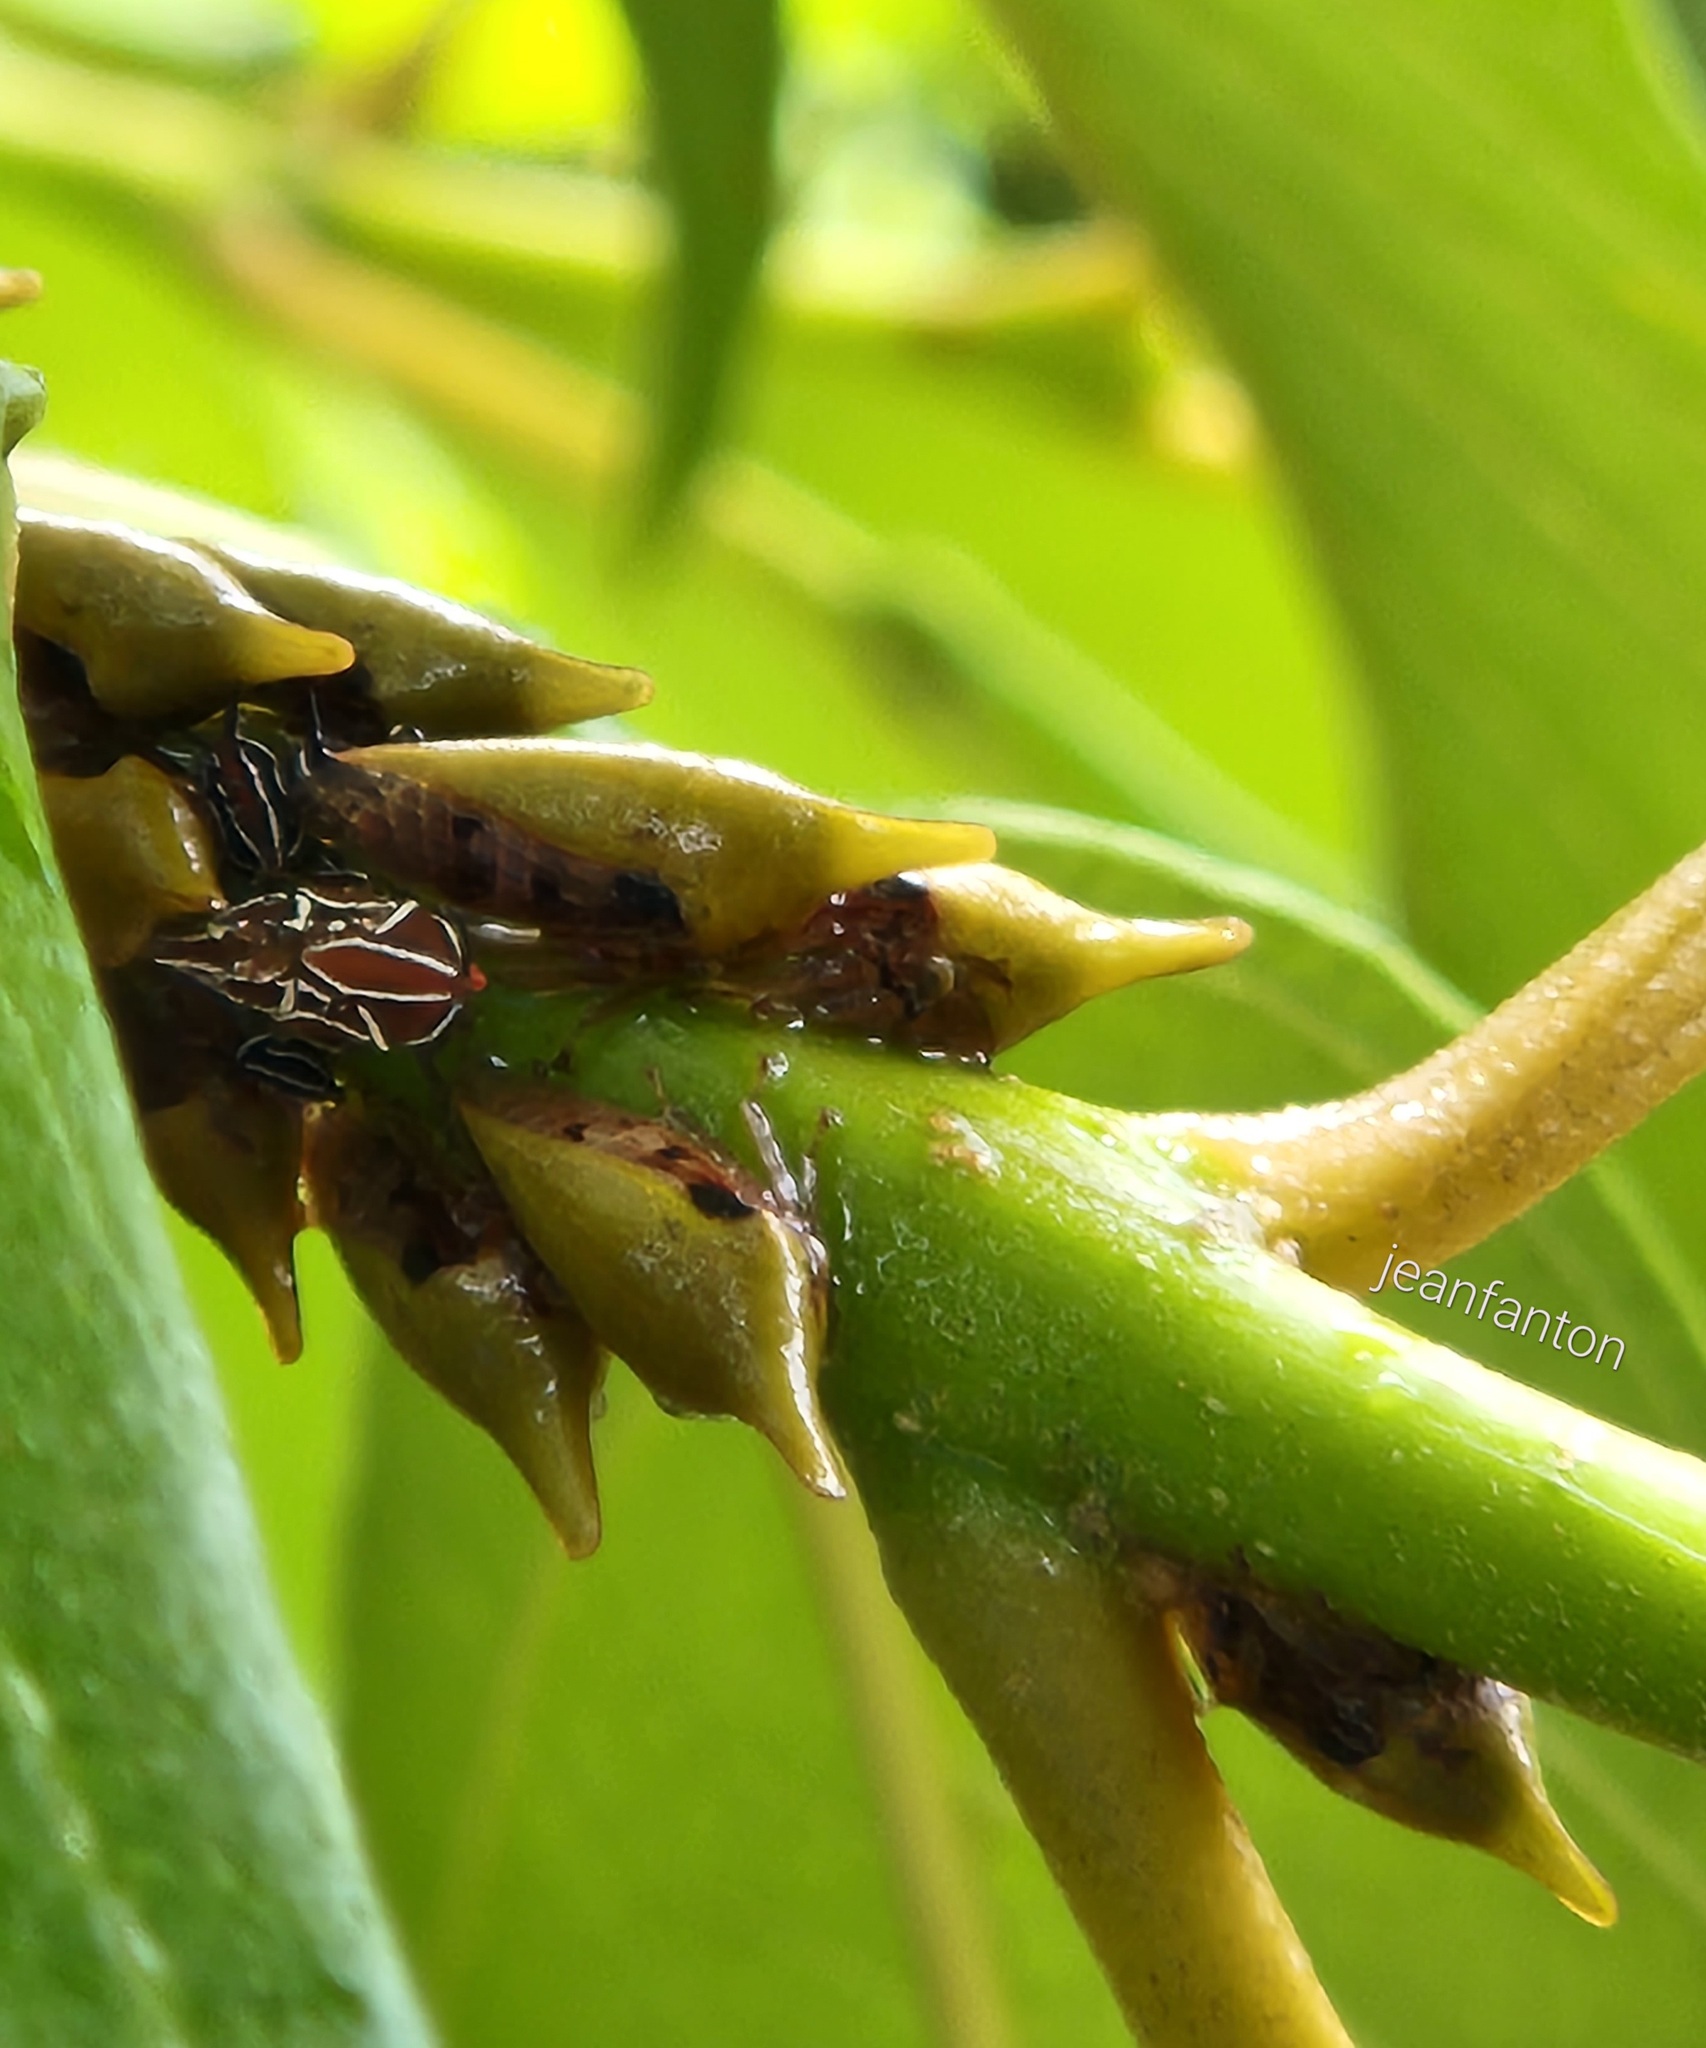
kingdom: Animalia
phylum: Arthropoda
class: Insecta
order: Hemiptera
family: Membracidae
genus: Guayaquila
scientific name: Guayaquila xiphias
